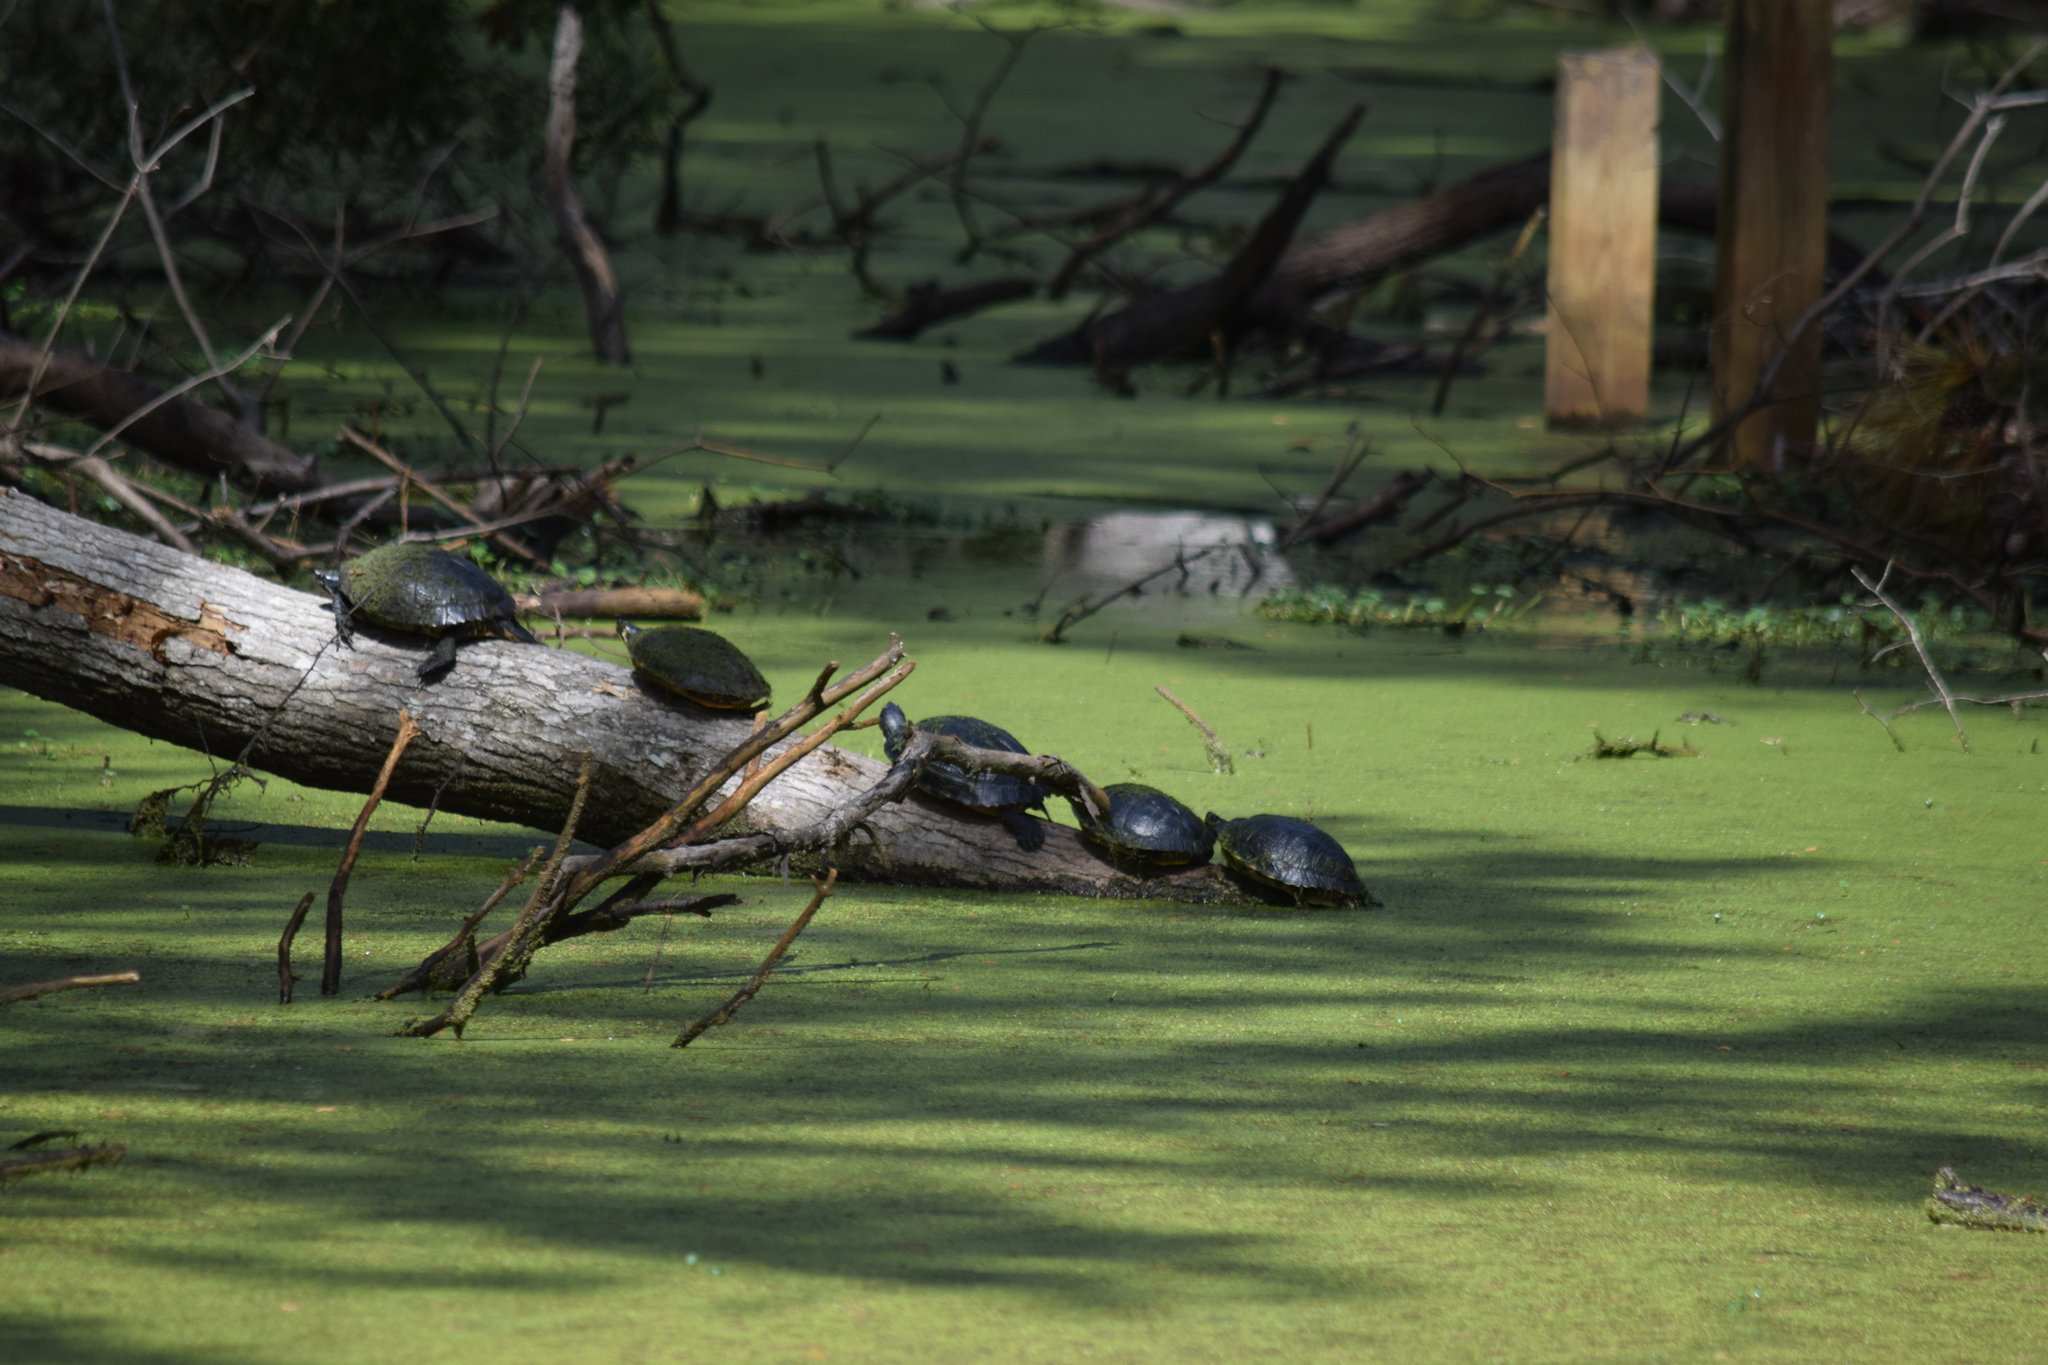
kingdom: Animalia
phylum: Chordata
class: Testudines
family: Emydidae
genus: Trachemys
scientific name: Trachemys scripta
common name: Slider
